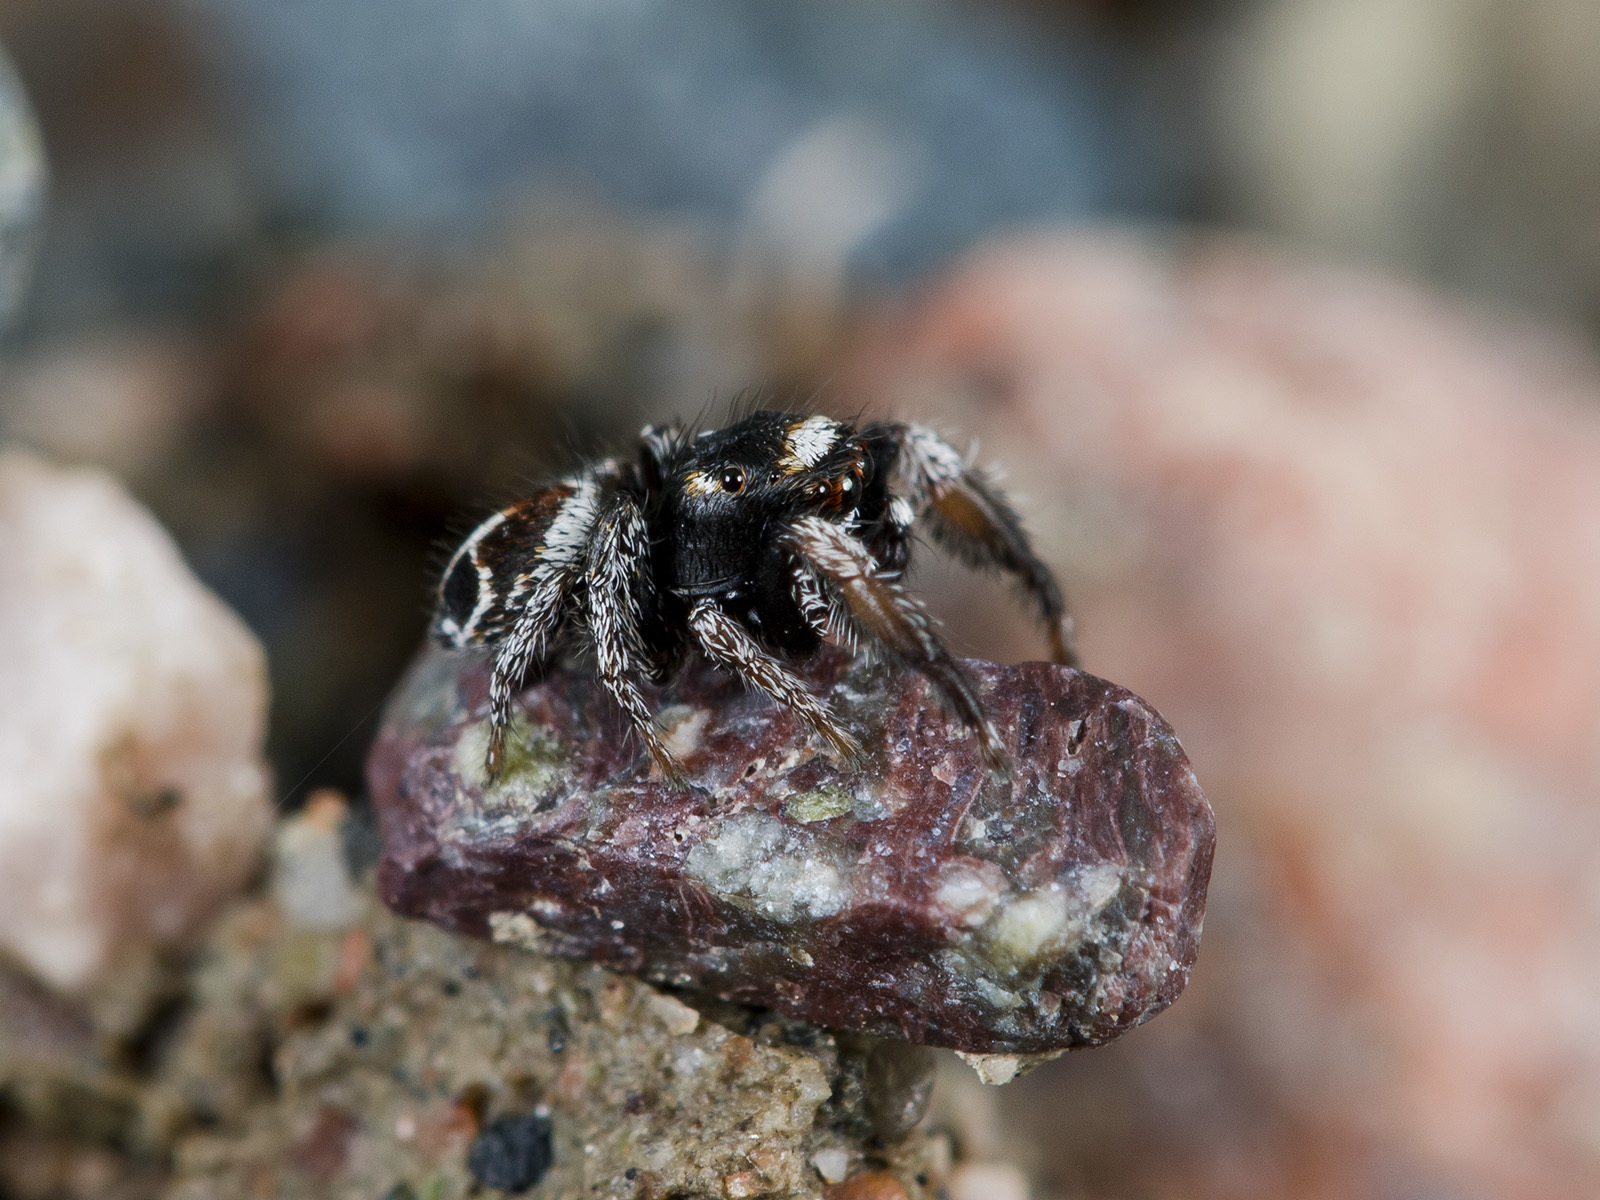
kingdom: Animalia
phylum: Arthropoda
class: Arachnida
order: Araneae
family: Salticidae
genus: Pellenes
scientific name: Pellenes geniculatus
